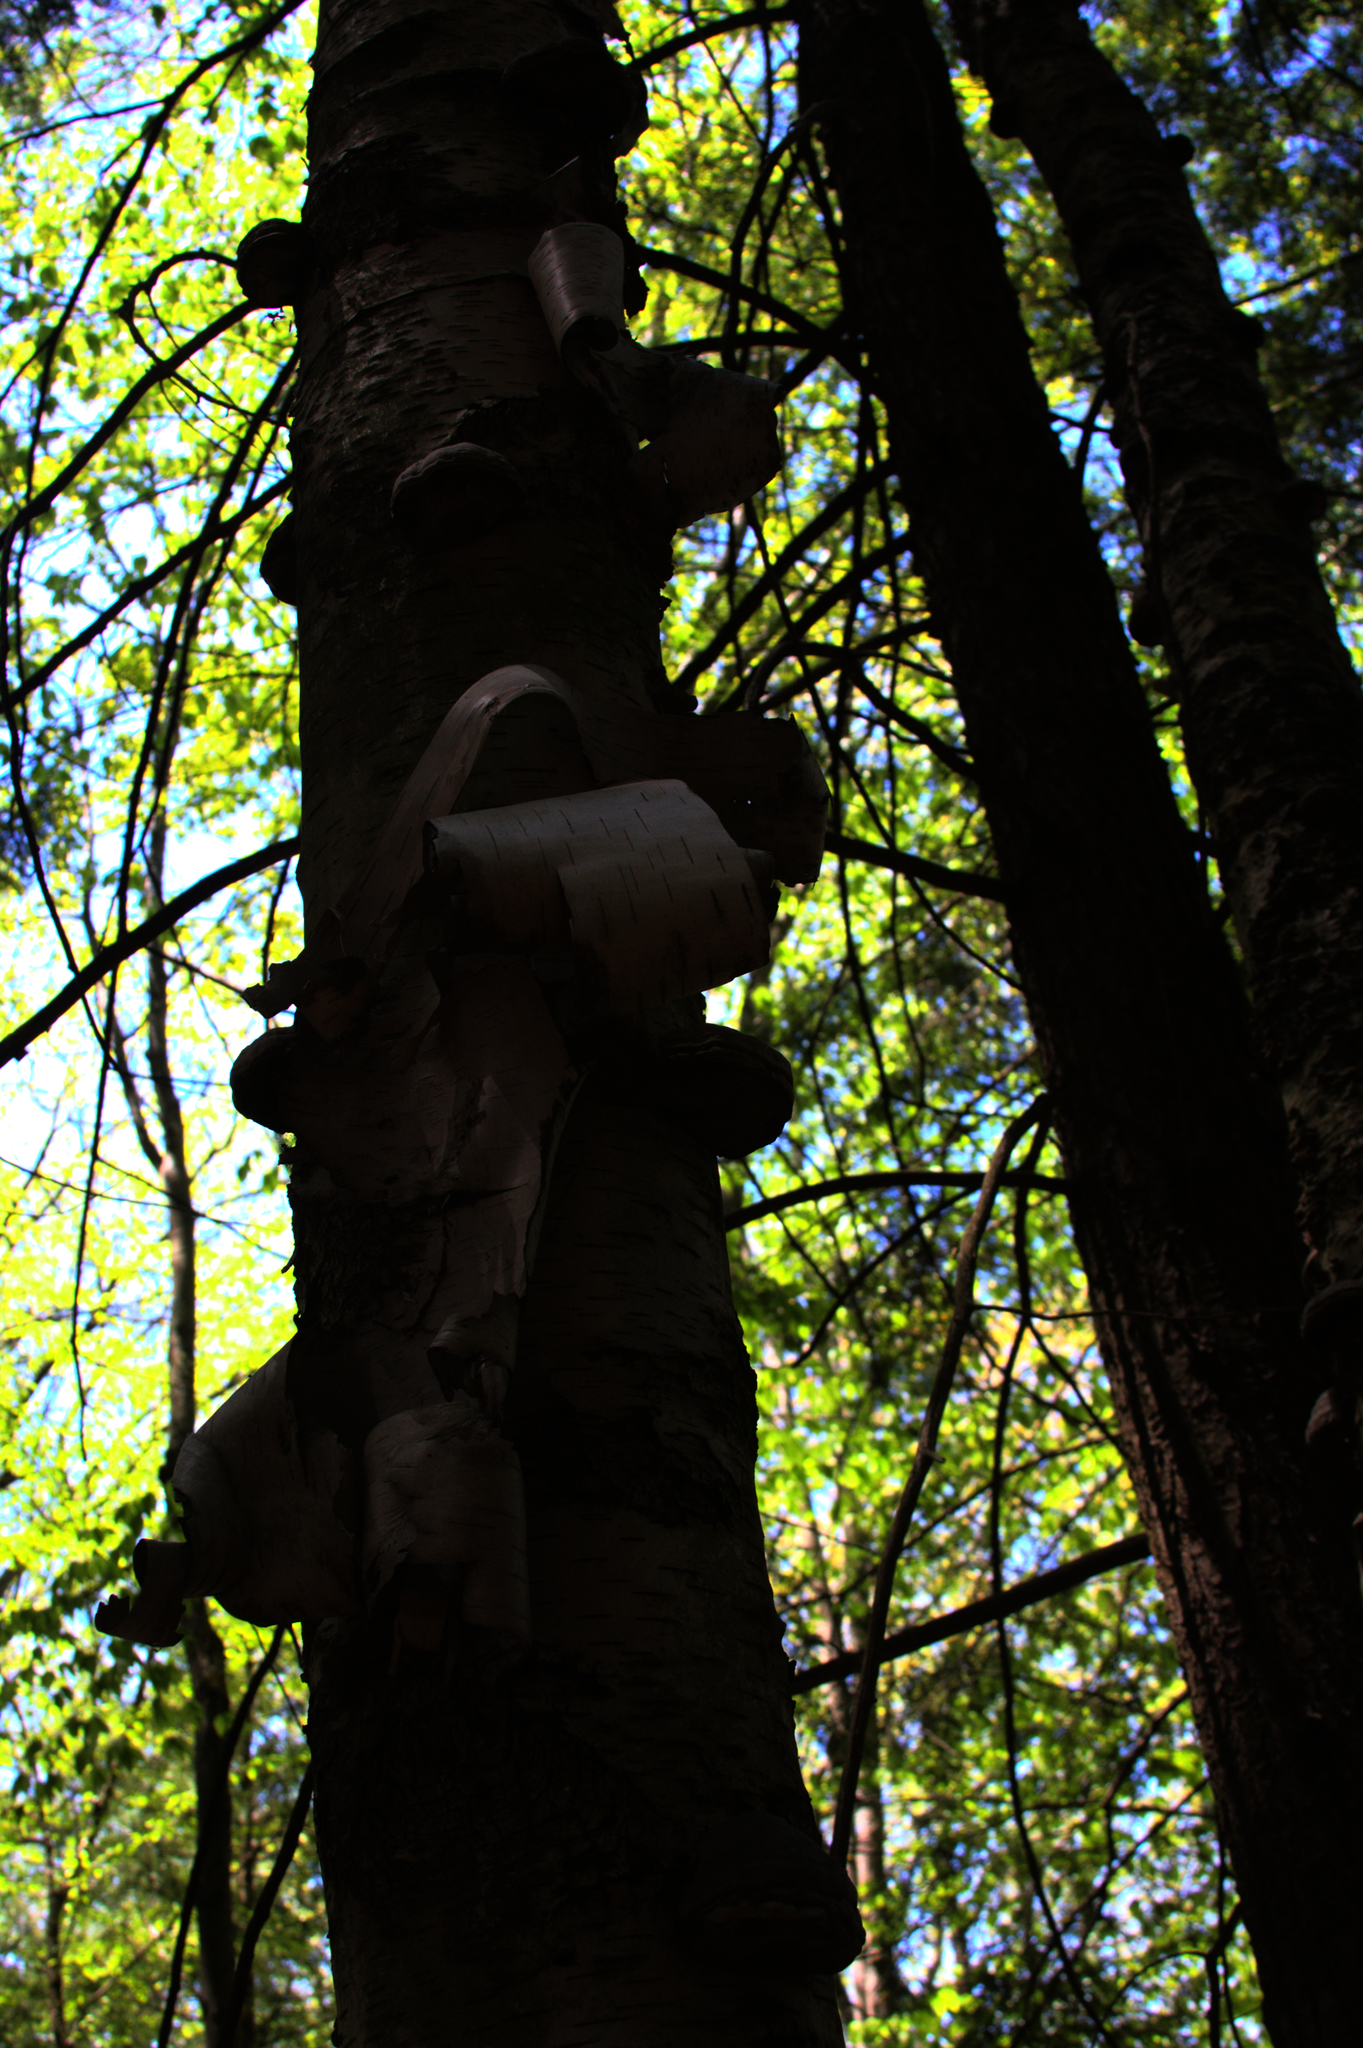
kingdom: Plantae
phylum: Tracheophyta
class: Magnoliopsida
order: Fagales
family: Betulaceae
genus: Betula
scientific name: Betula papyrifera
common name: Paper birch
